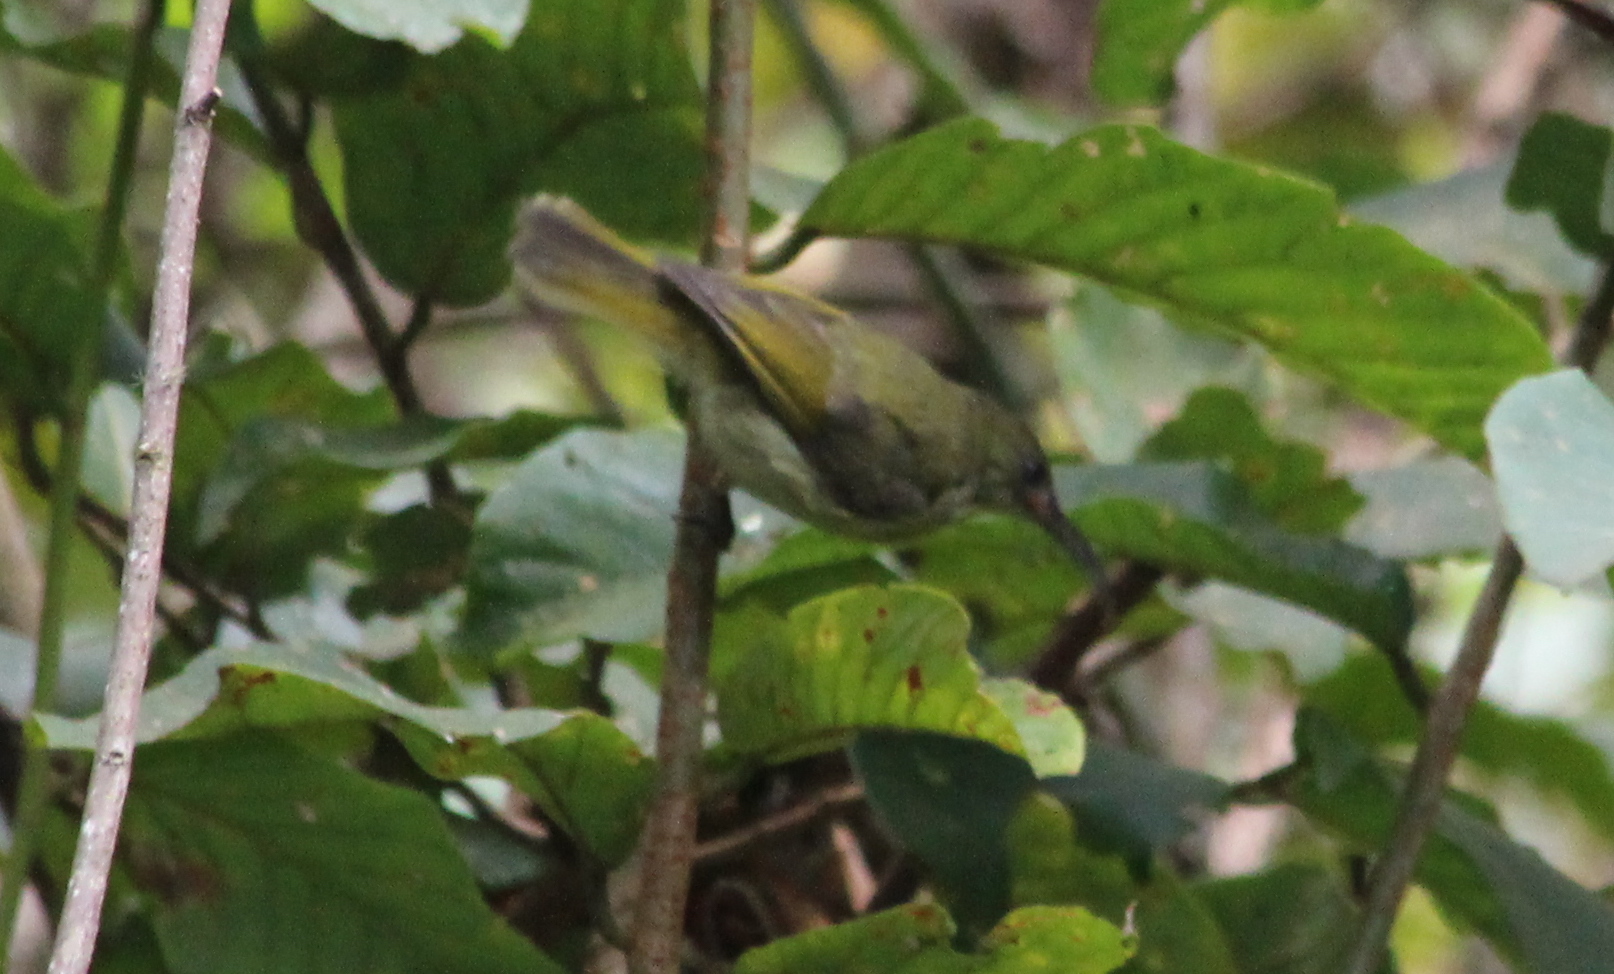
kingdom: Animalia
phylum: Chordata
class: Aves
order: Passeriformes
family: Nectariniidae
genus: Cyanomitra
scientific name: Cyanomitra olivacea
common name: Olive sunbird
